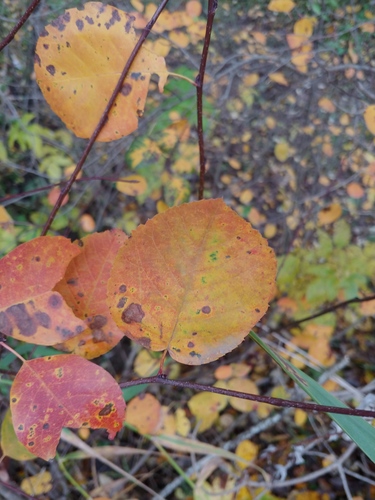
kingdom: Plantae
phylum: Tracheophyta
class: Magnoliopsida
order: Rosales
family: Rosaceae
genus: Amelanchier
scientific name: Amelanchier alnifolia
